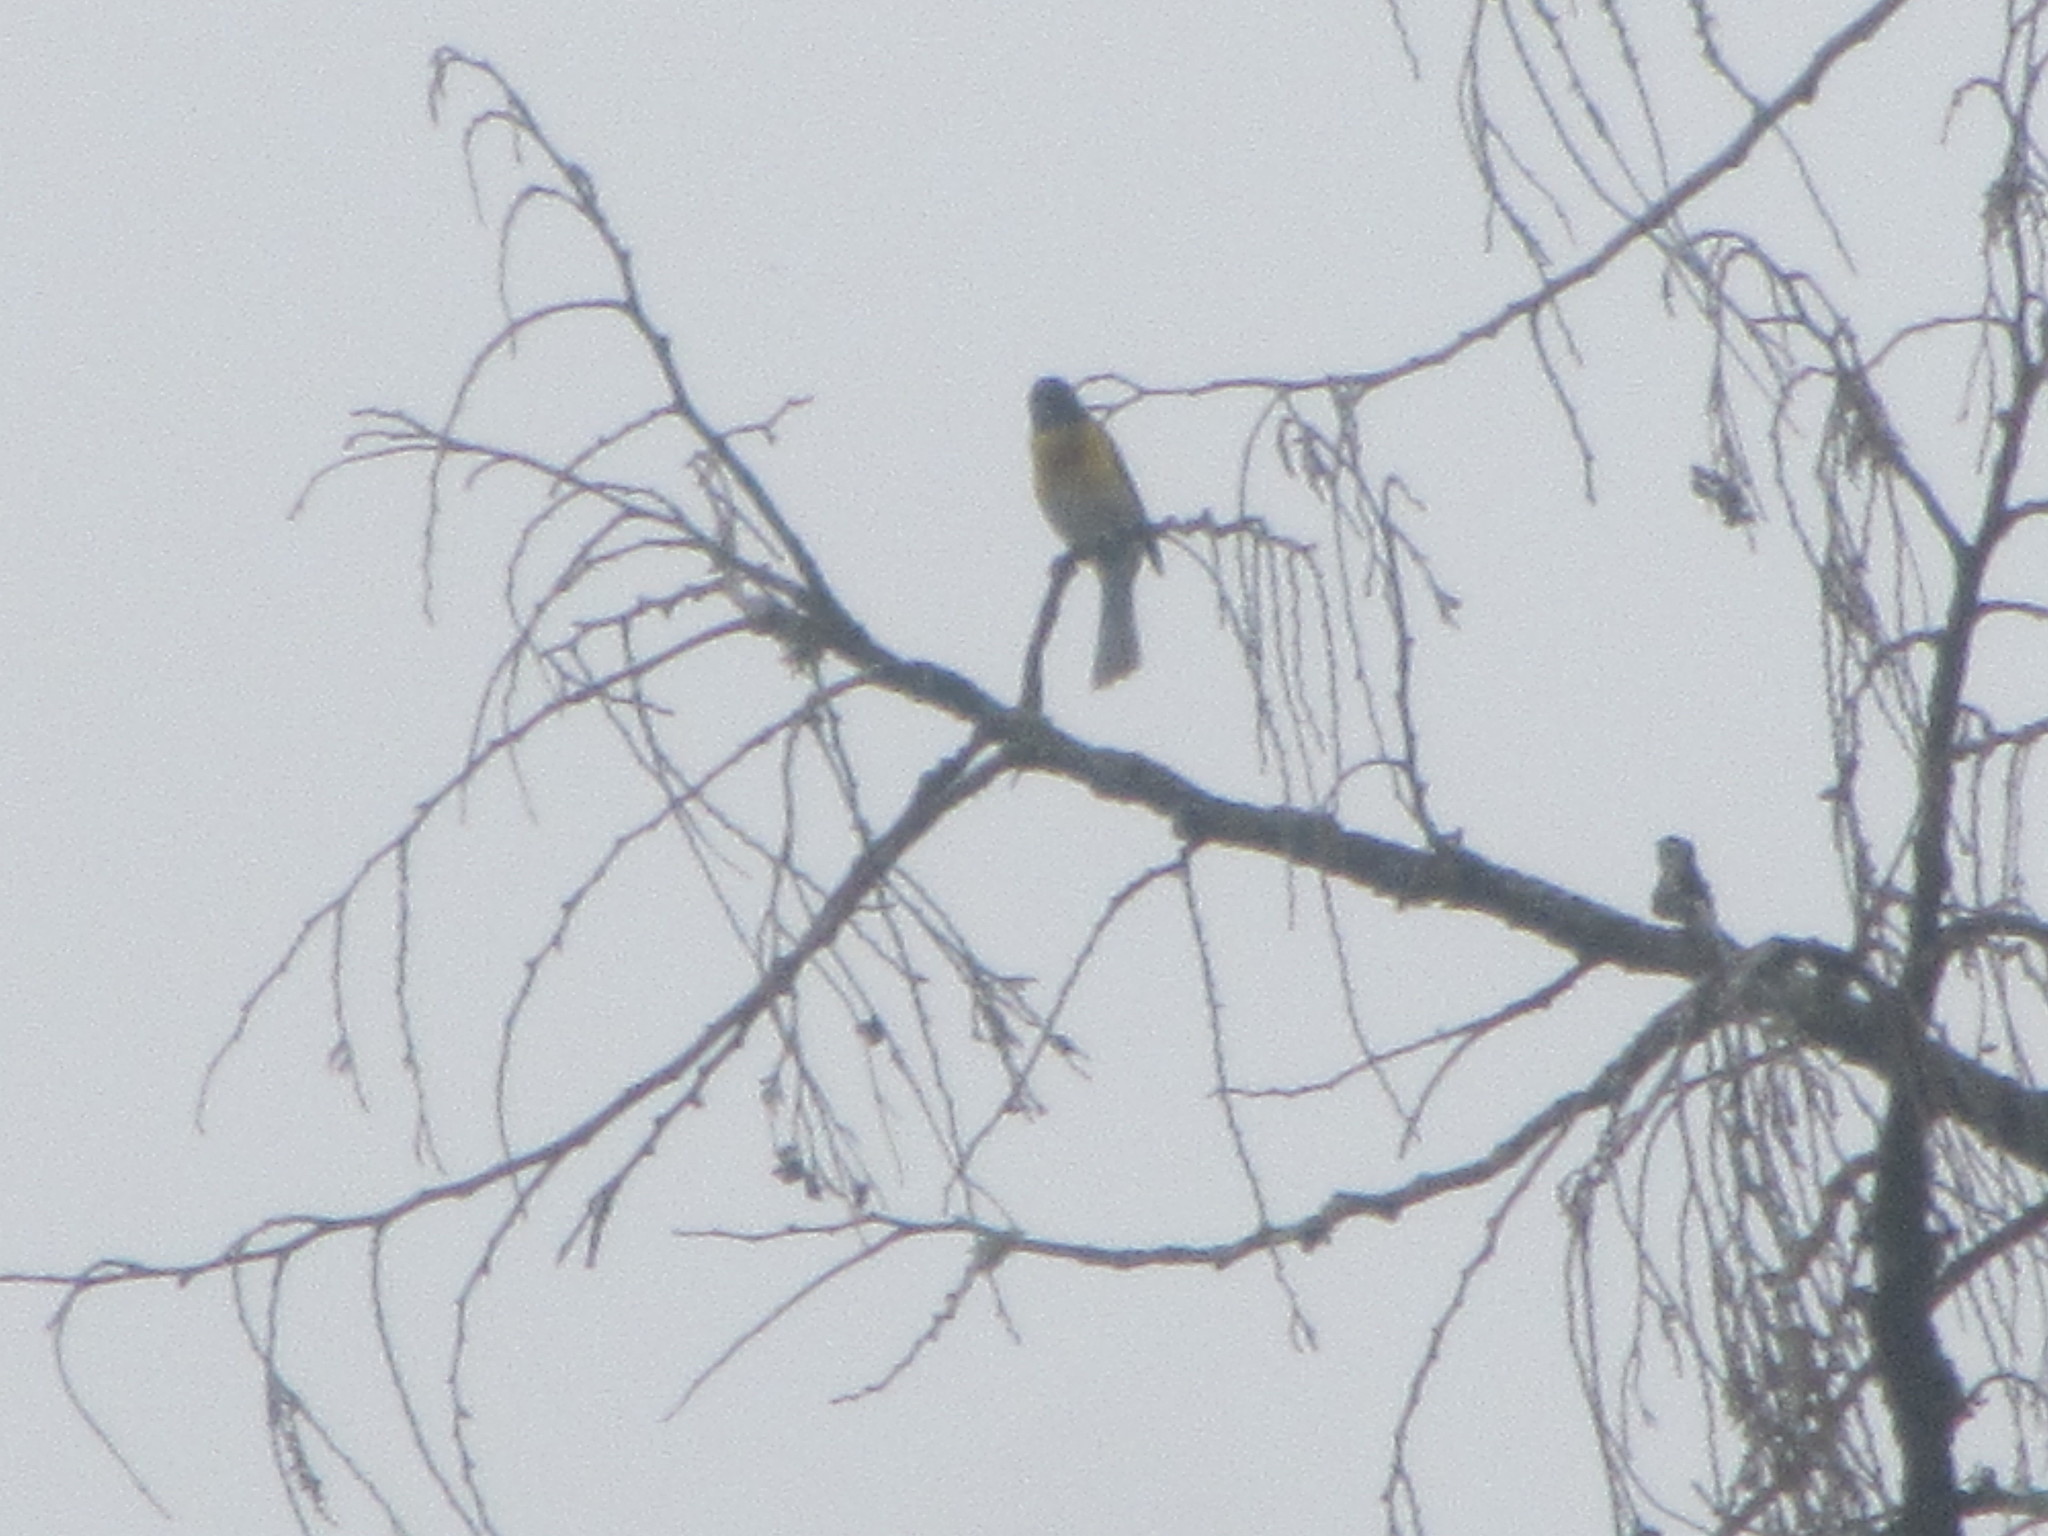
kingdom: Animalia
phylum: Chordata
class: Aves
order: Passeriformes
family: Parulidae
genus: Icteria
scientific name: Icteria virens
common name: Yellow-breasted chat
